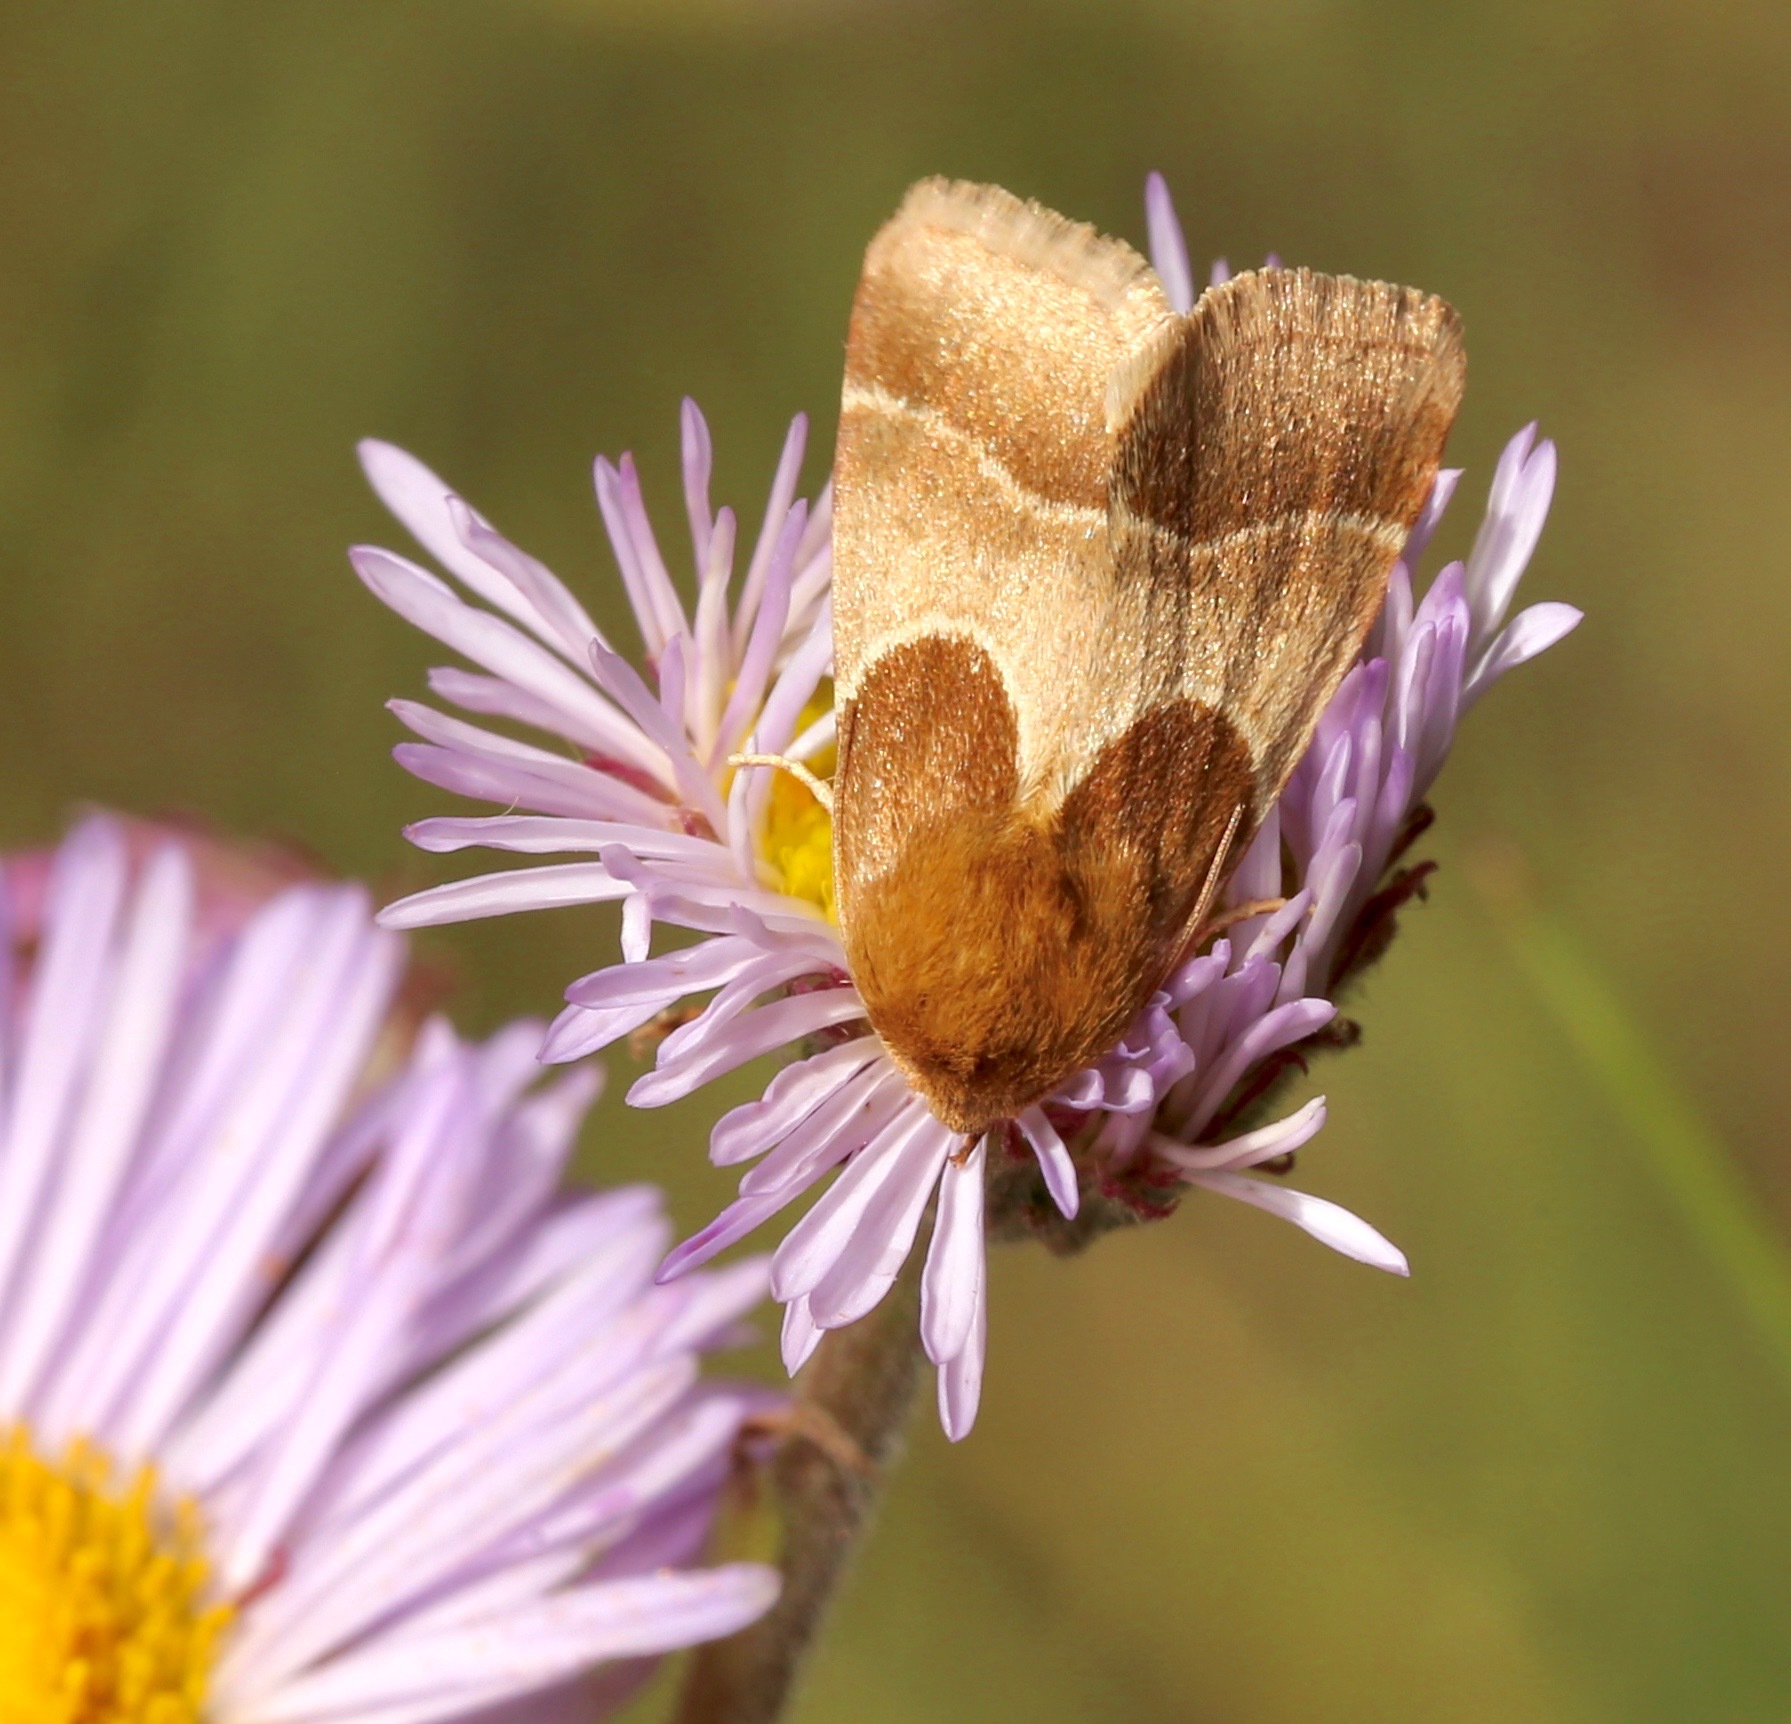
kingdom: Animalia
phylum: Arthropoda
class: Insecta
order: Lepidoptera
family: Noctuidae
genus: Schinia
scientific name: Schinia arcigera
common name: Arcigera flower moth
